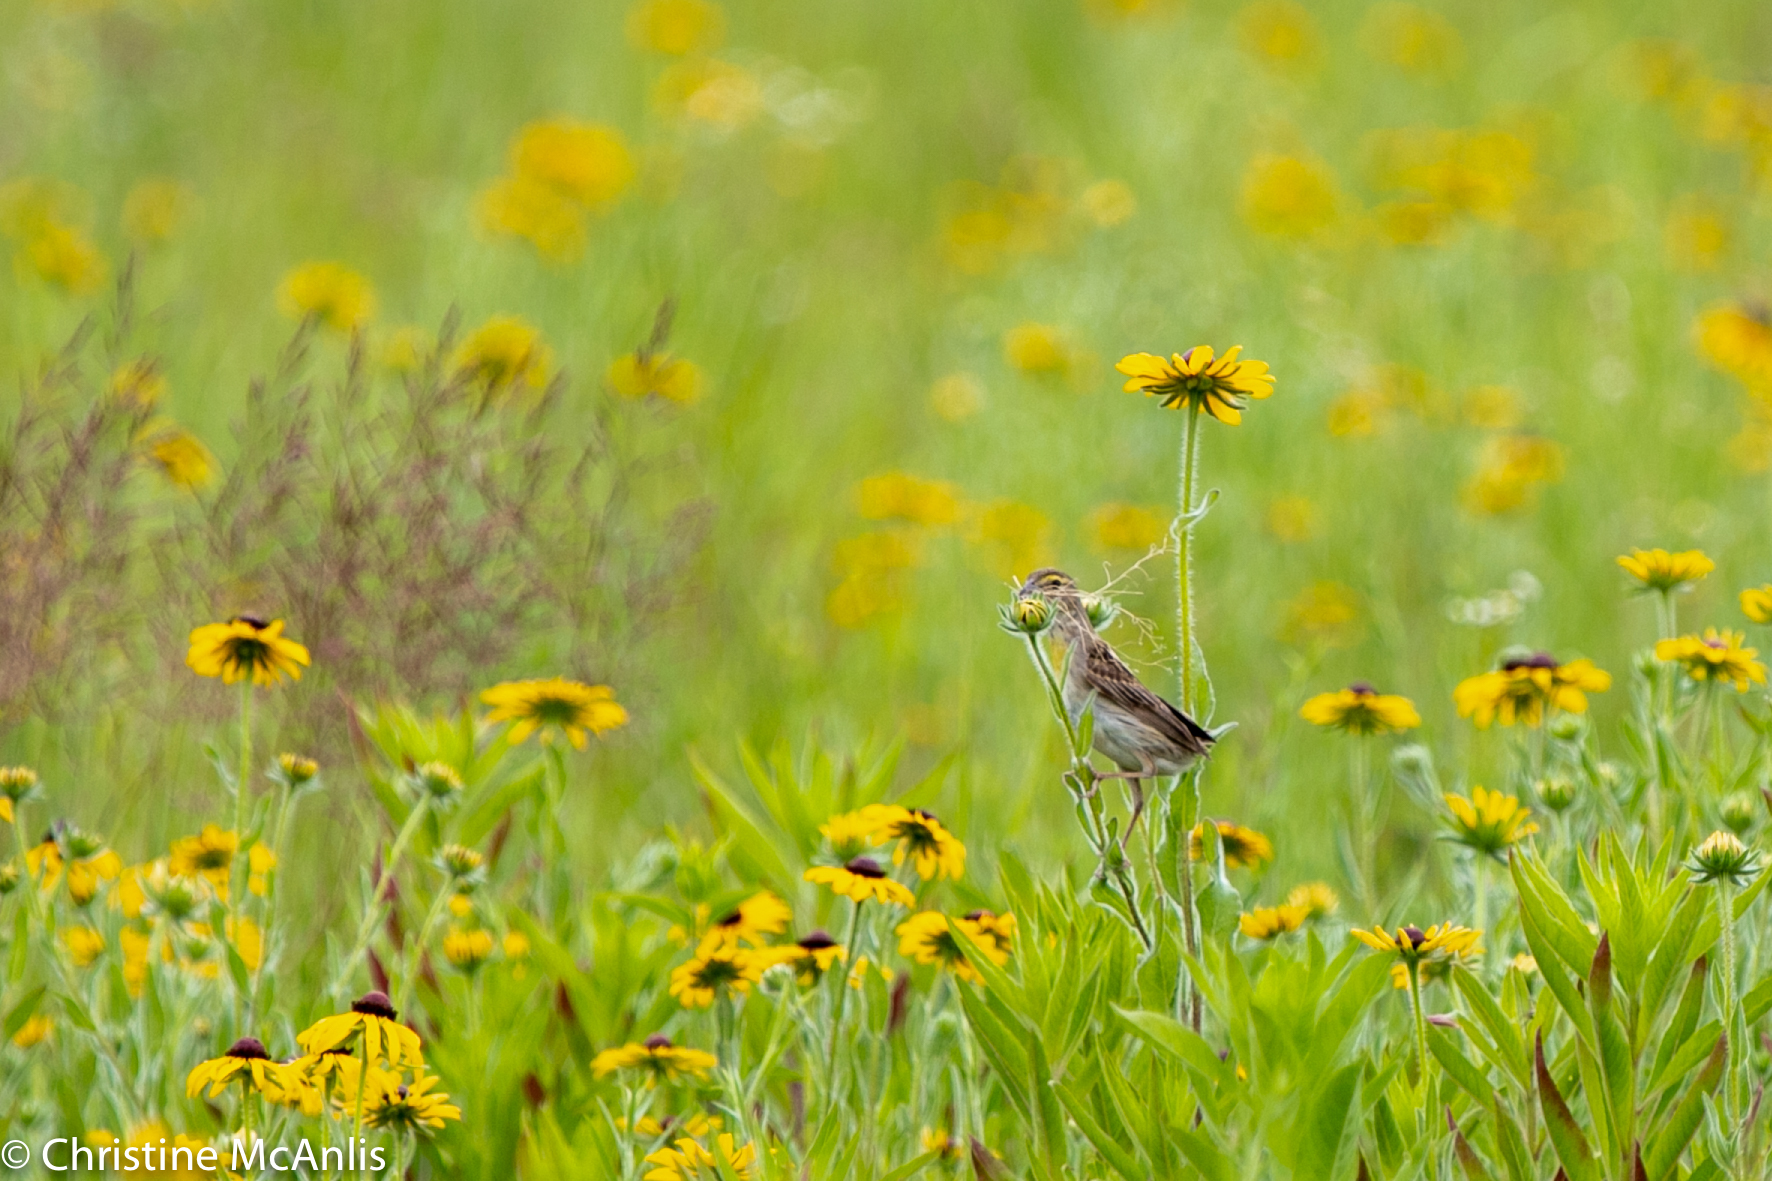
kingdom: Animalia
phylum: Chordata
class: Aves
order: Passeriformes
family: Cardinalidae
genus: Spiza
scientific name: Spiza americana
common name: Dickcissel
